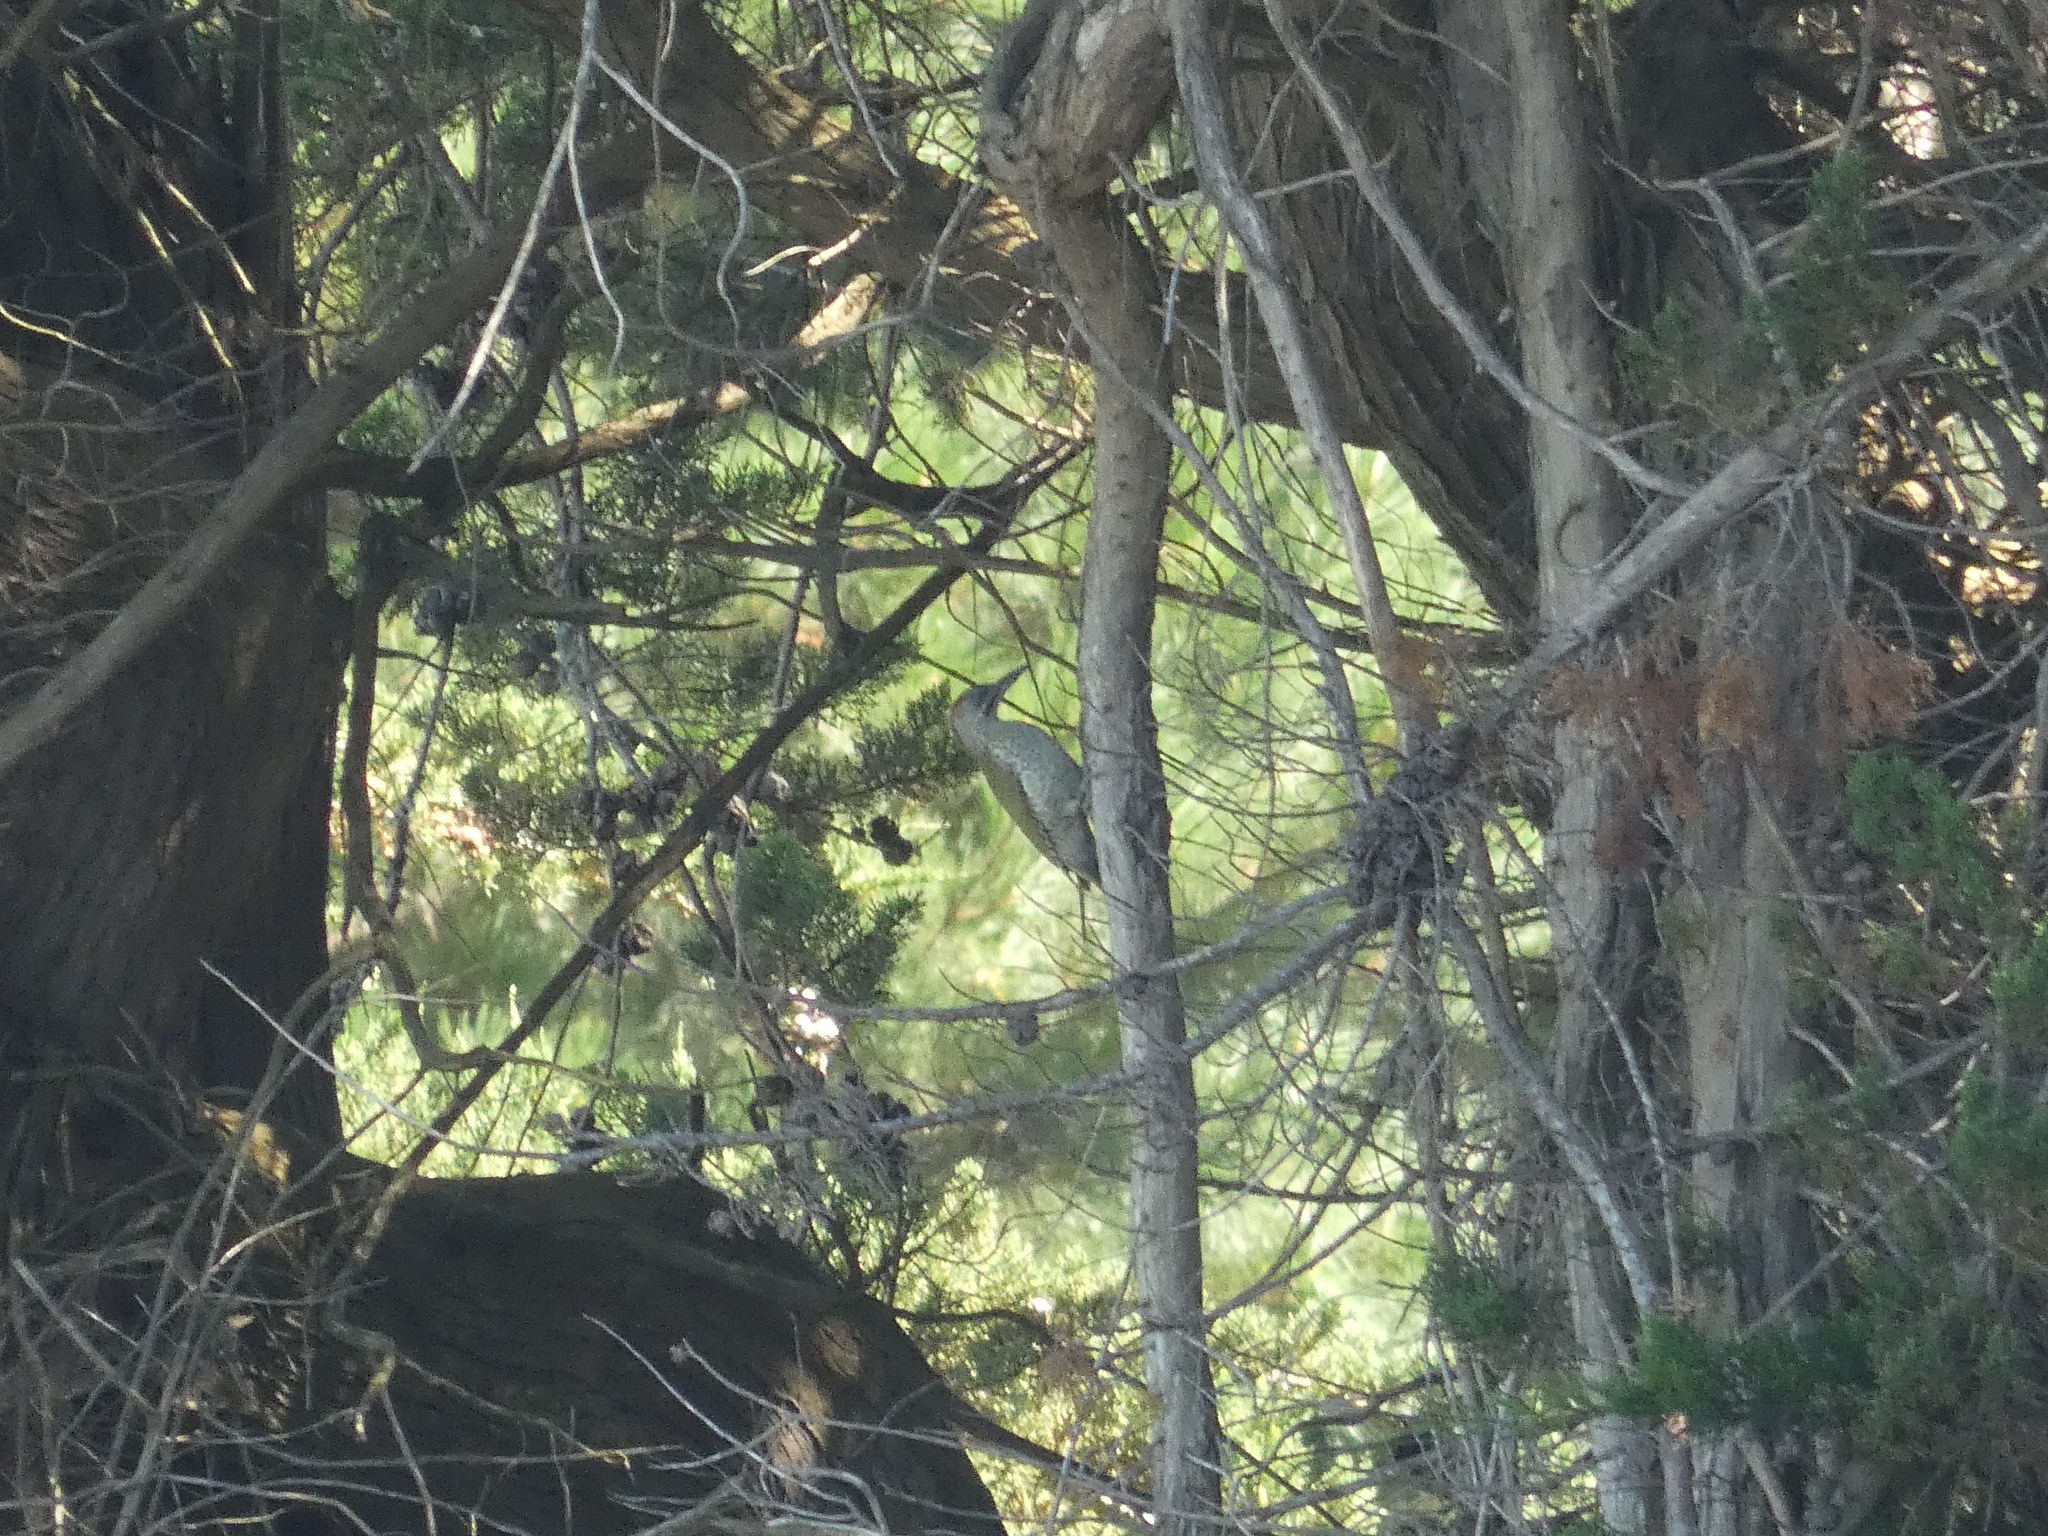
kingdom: Animalia
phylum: Chordata
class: Aves
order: Piciformes
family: Picidae
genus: Picus
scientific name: Picus viridis
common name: European green woodpecker
